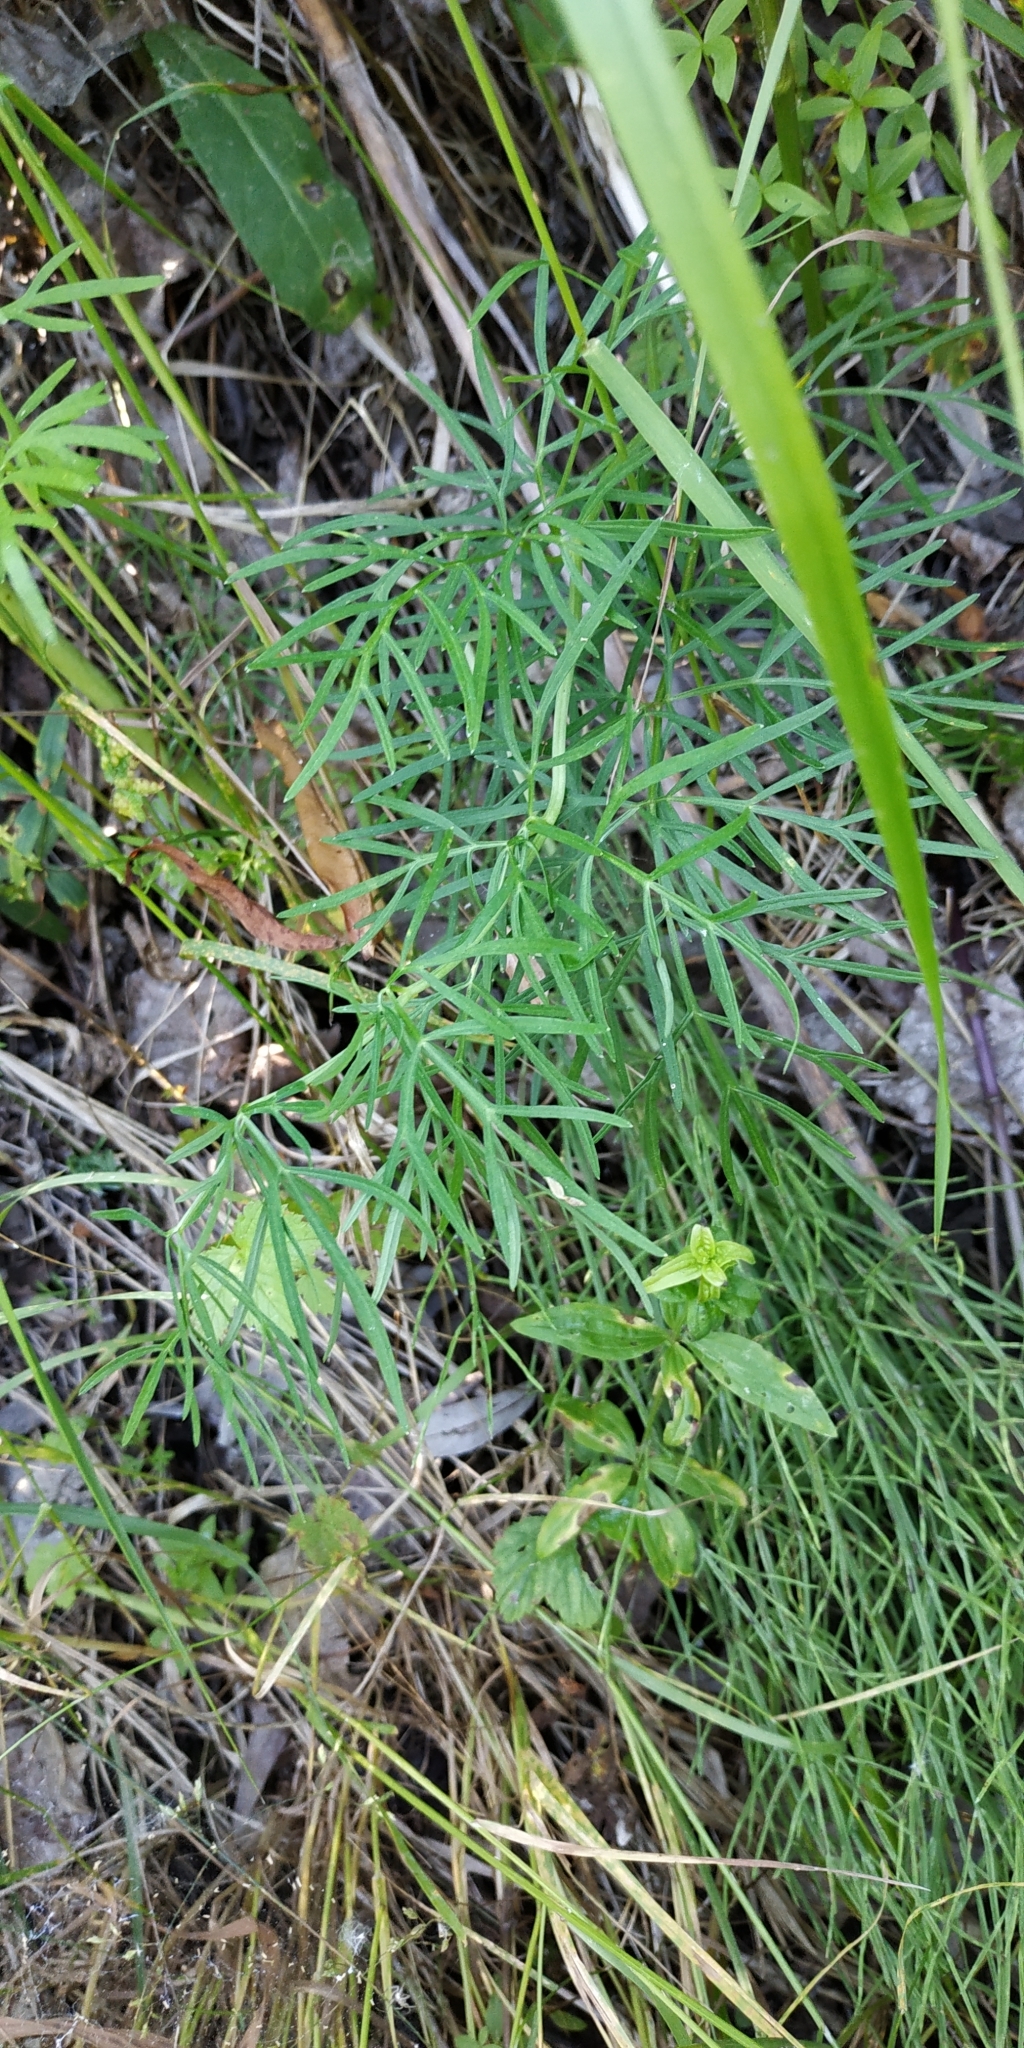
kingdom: Plantae
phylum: Tracheophyta
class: Magnoliopsida
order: Apiales
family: Apiaceae
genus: Kadenia
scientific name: Kadenia dubia
